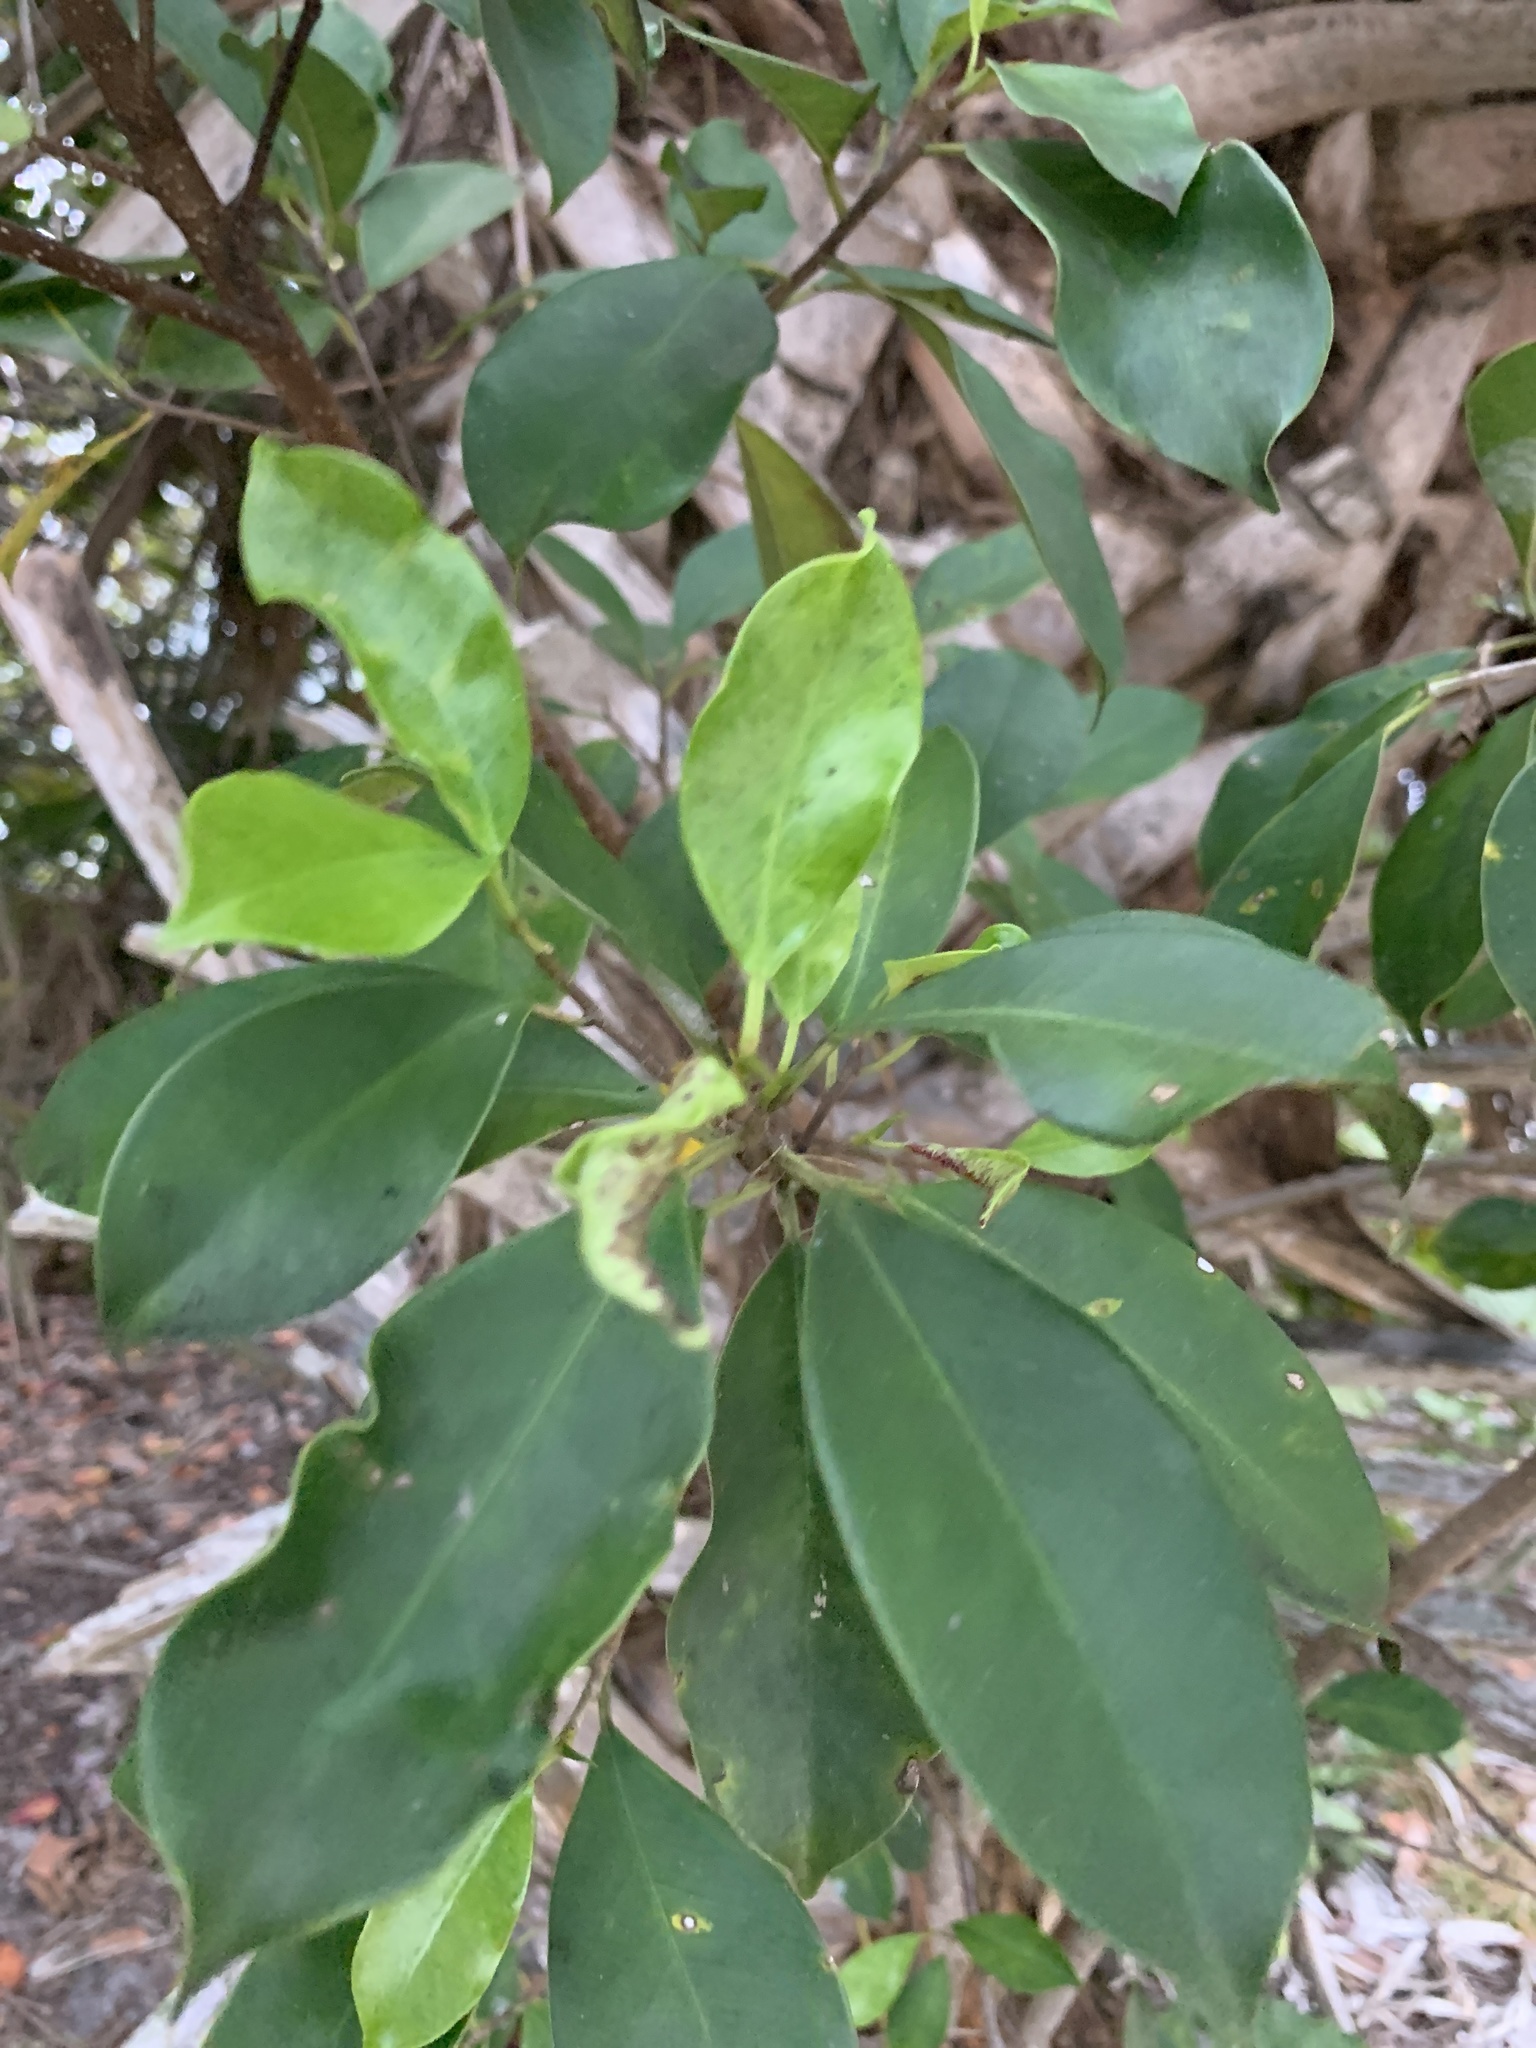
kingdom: Plantae
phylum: Tracheophyta
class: Magnoliopsida
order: Rosales
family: Moraceae
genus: Ficus
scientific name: Ficus microcarpa
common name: Chinese banyan
